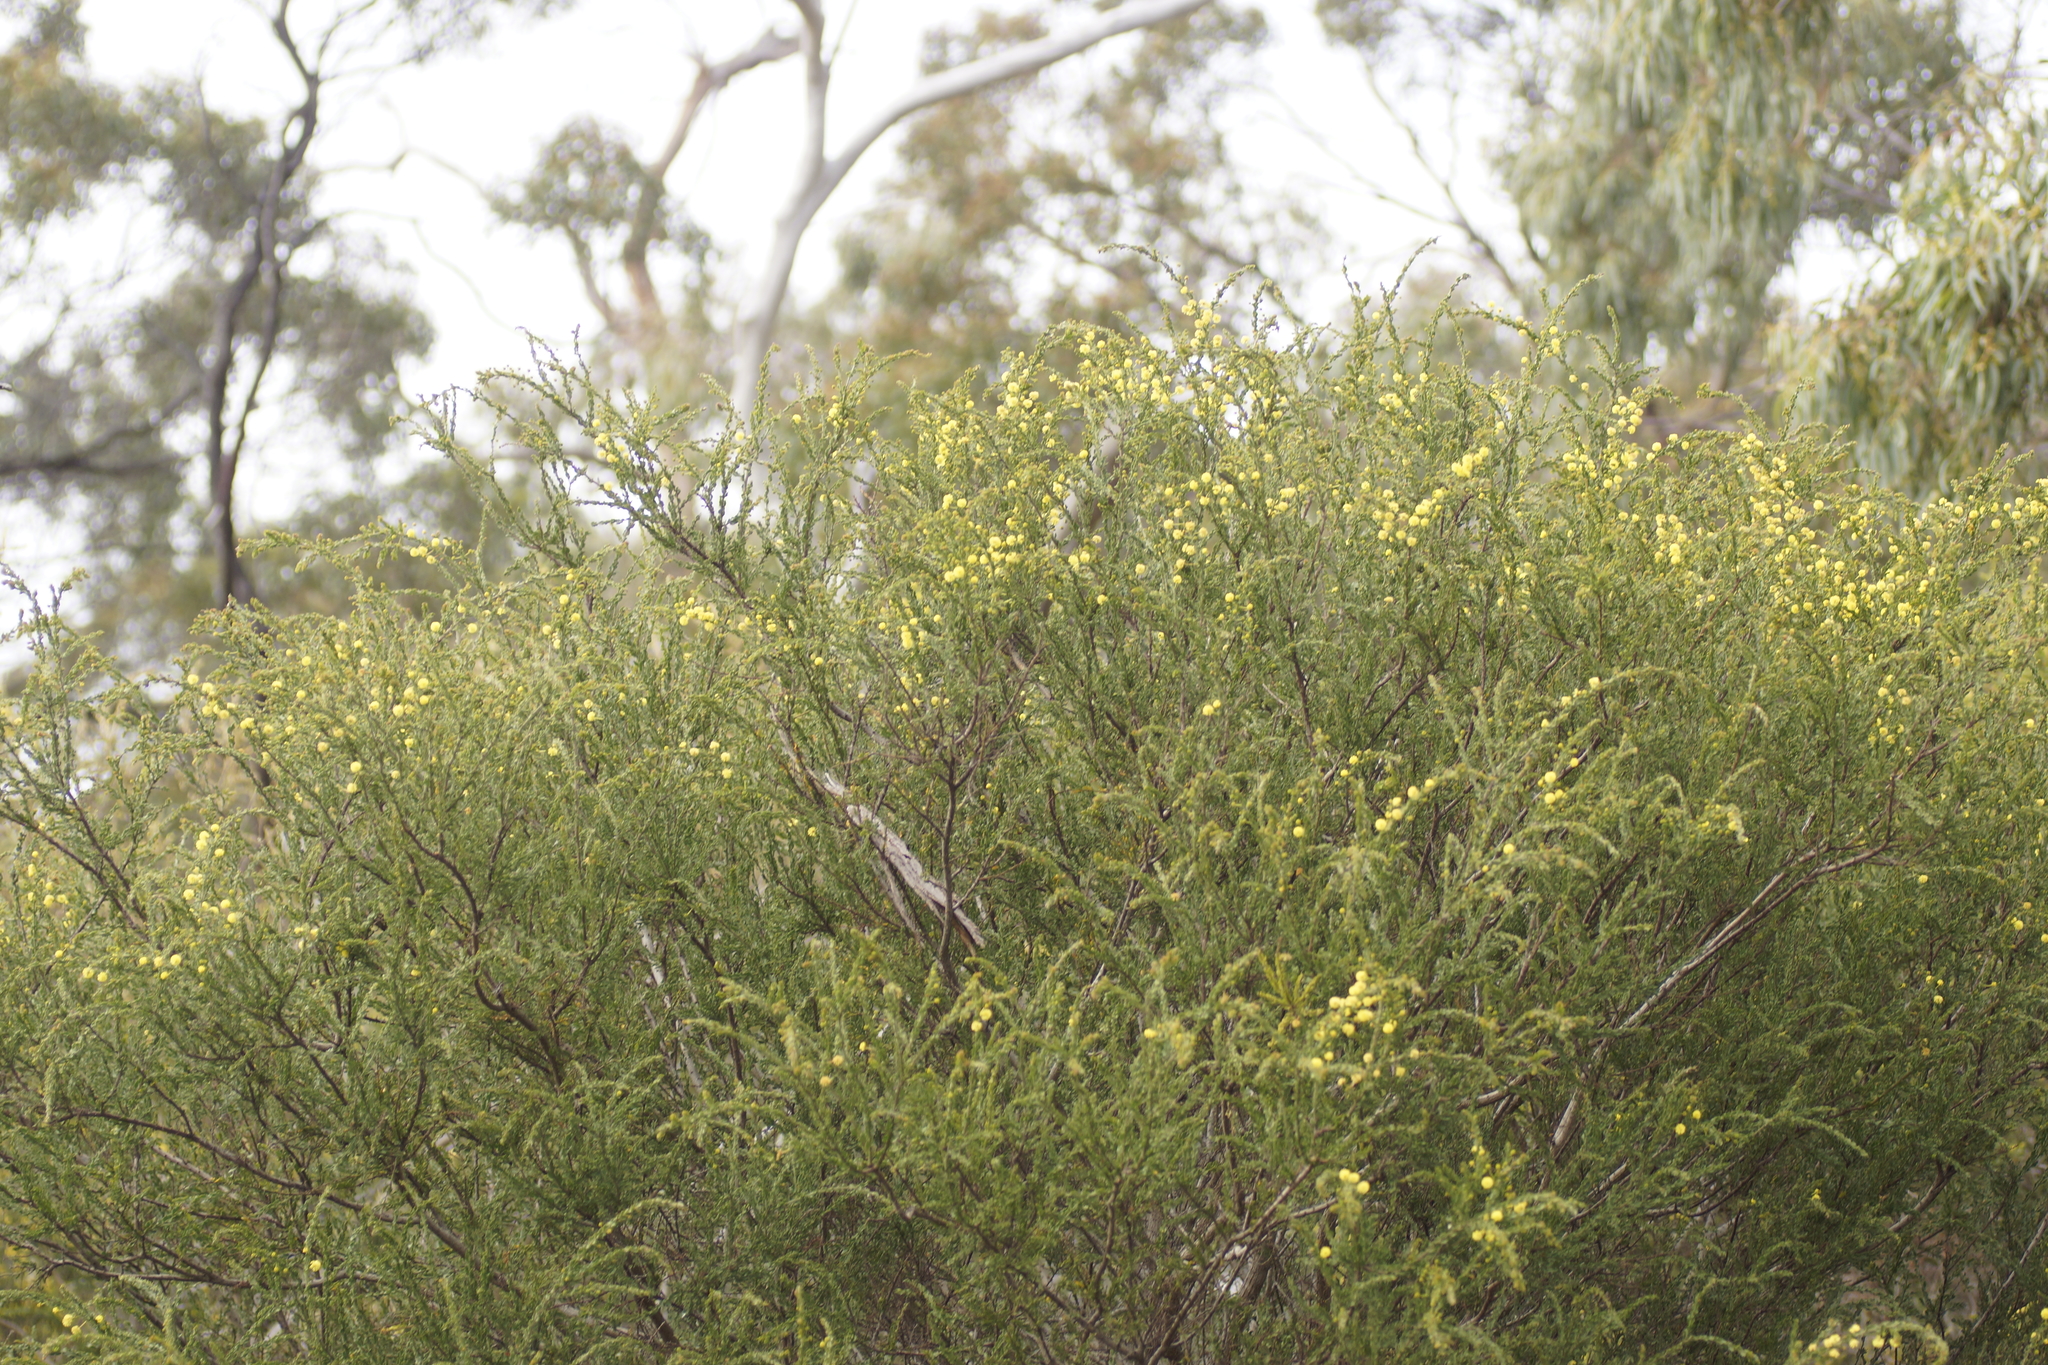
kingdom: Plantae
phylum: Tracheophyta
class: Magnoliopsida
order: Fabales
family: Fabaceae
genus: Acacia
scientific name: Acacia paradoxa
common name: Paradox acacia
